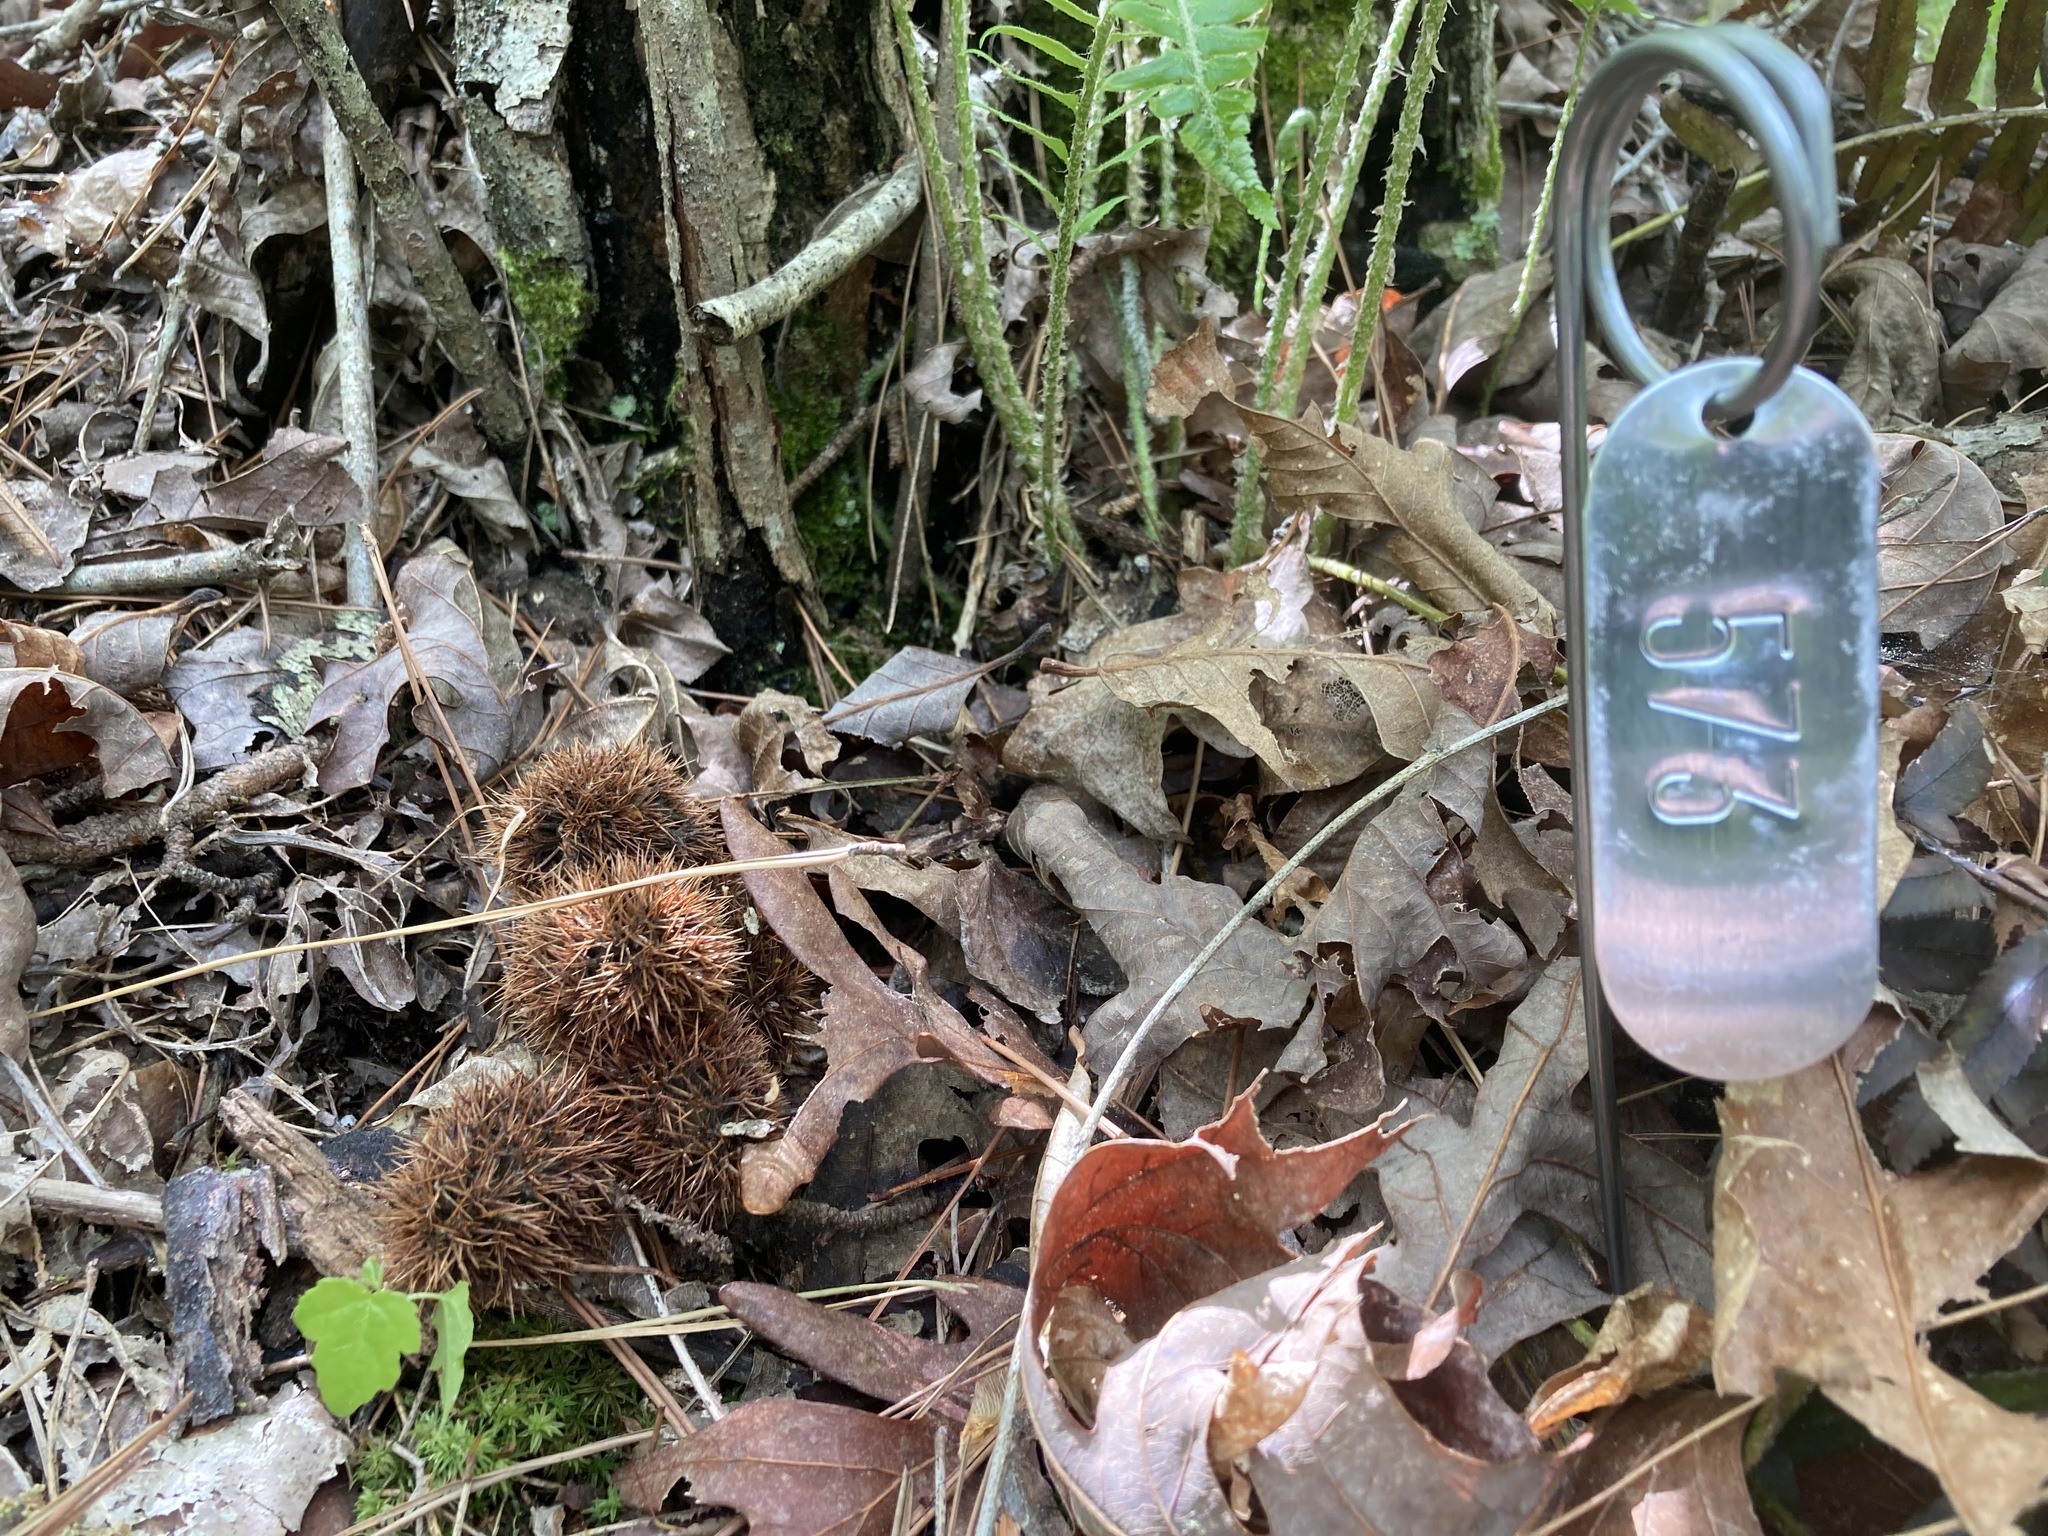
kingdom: Plantae
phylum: Tracheophyta
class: Magnoliopsida
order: Fagales
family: Fagaceae
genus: Castanea
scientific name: Castanea ozarkensis
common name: Ozark chinkapin
